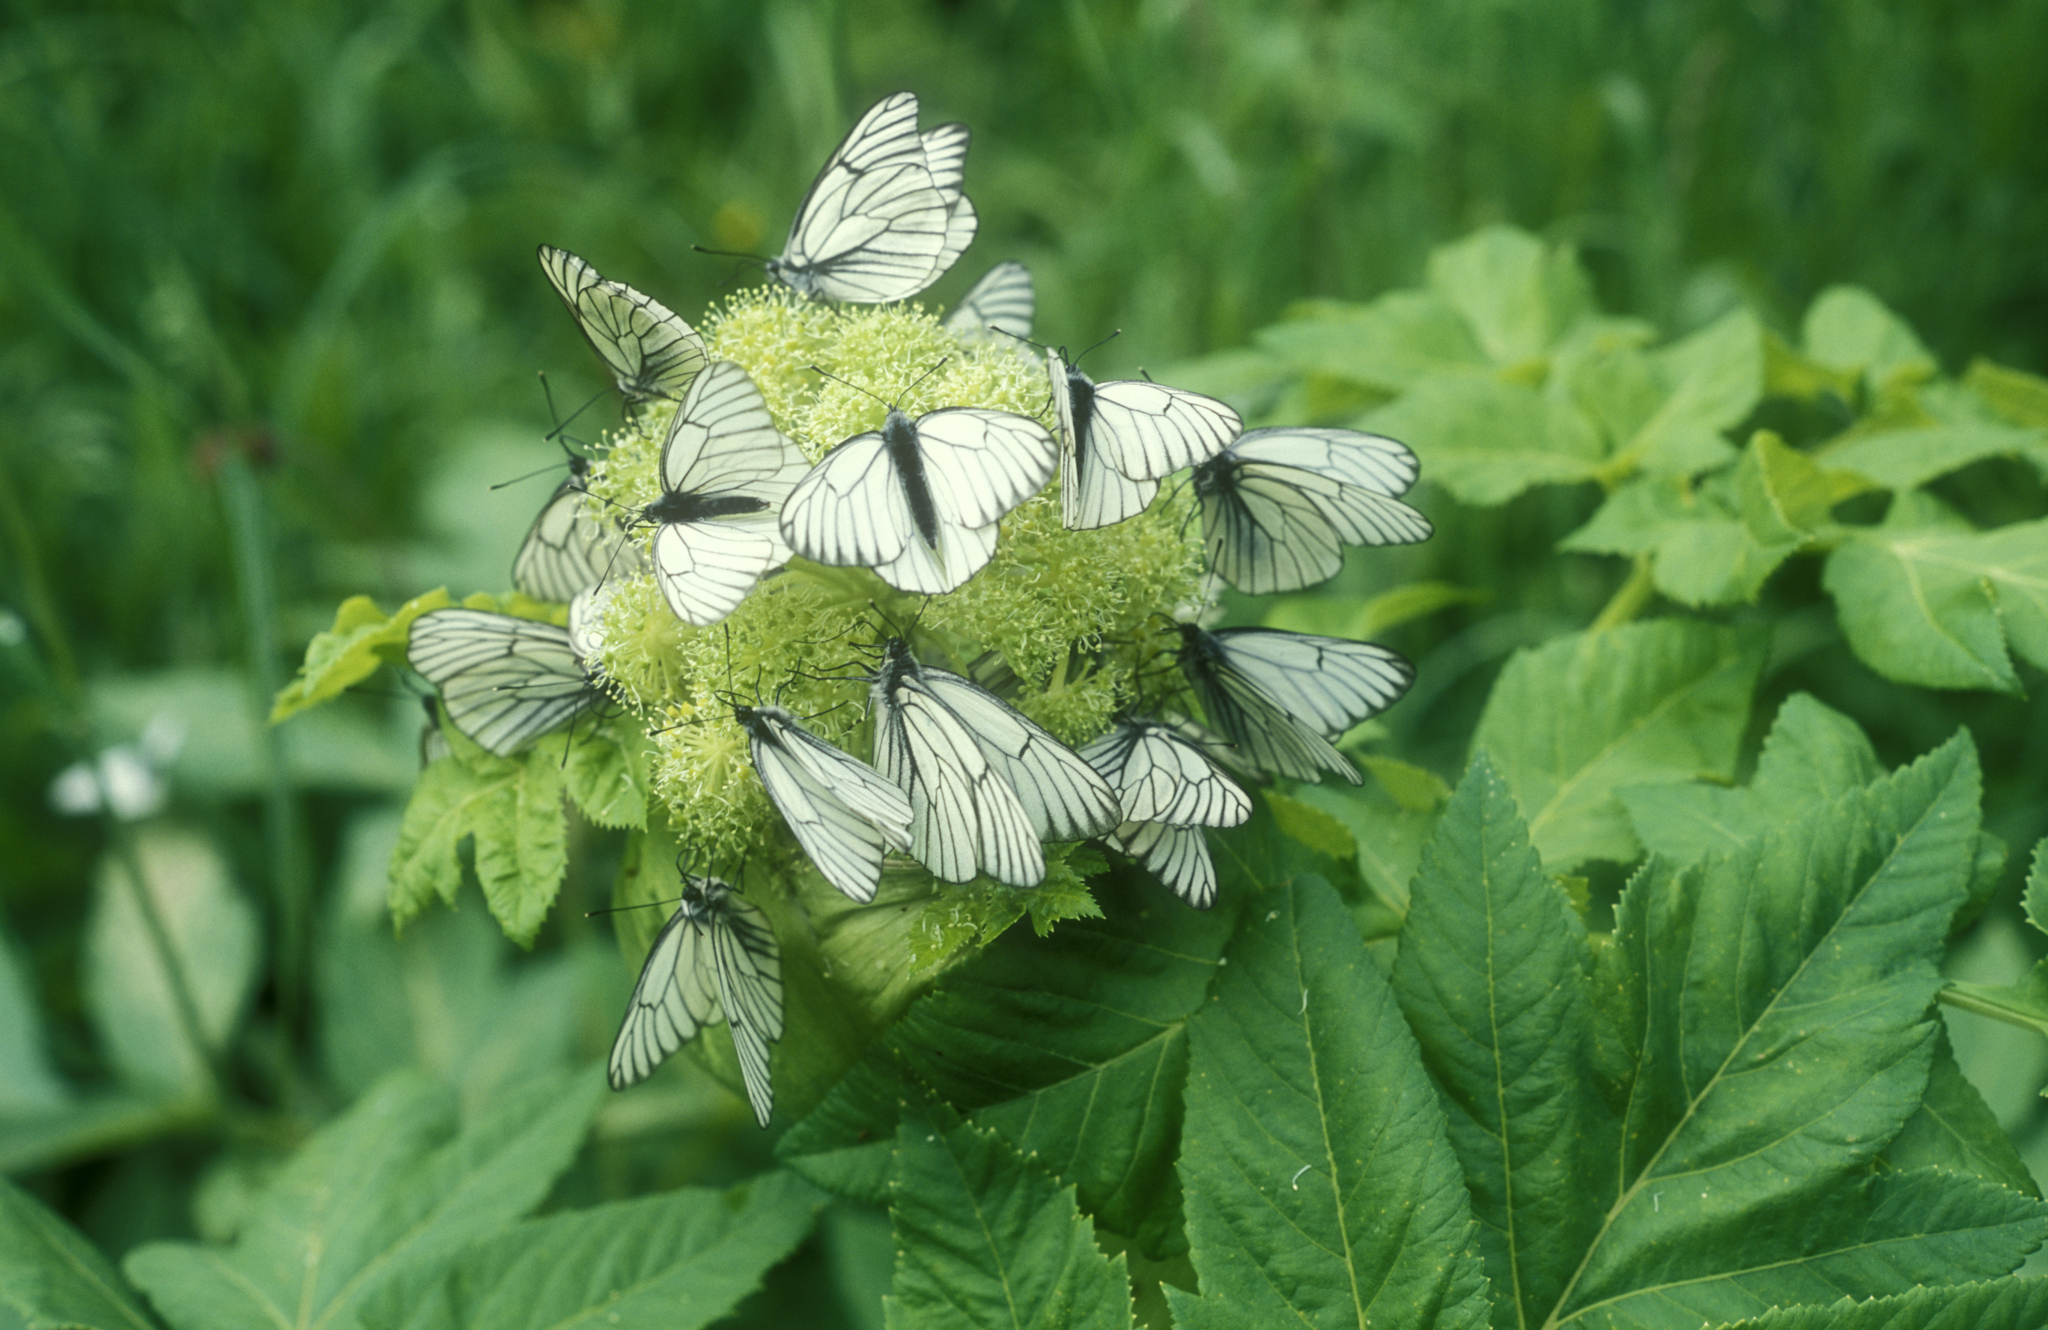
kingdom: Animalia
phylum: Arthropoda
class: Insecta
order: Lepidoptera
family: Pieridae
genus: Aporia
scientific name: Aporia crataegi
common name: Black-veined white
